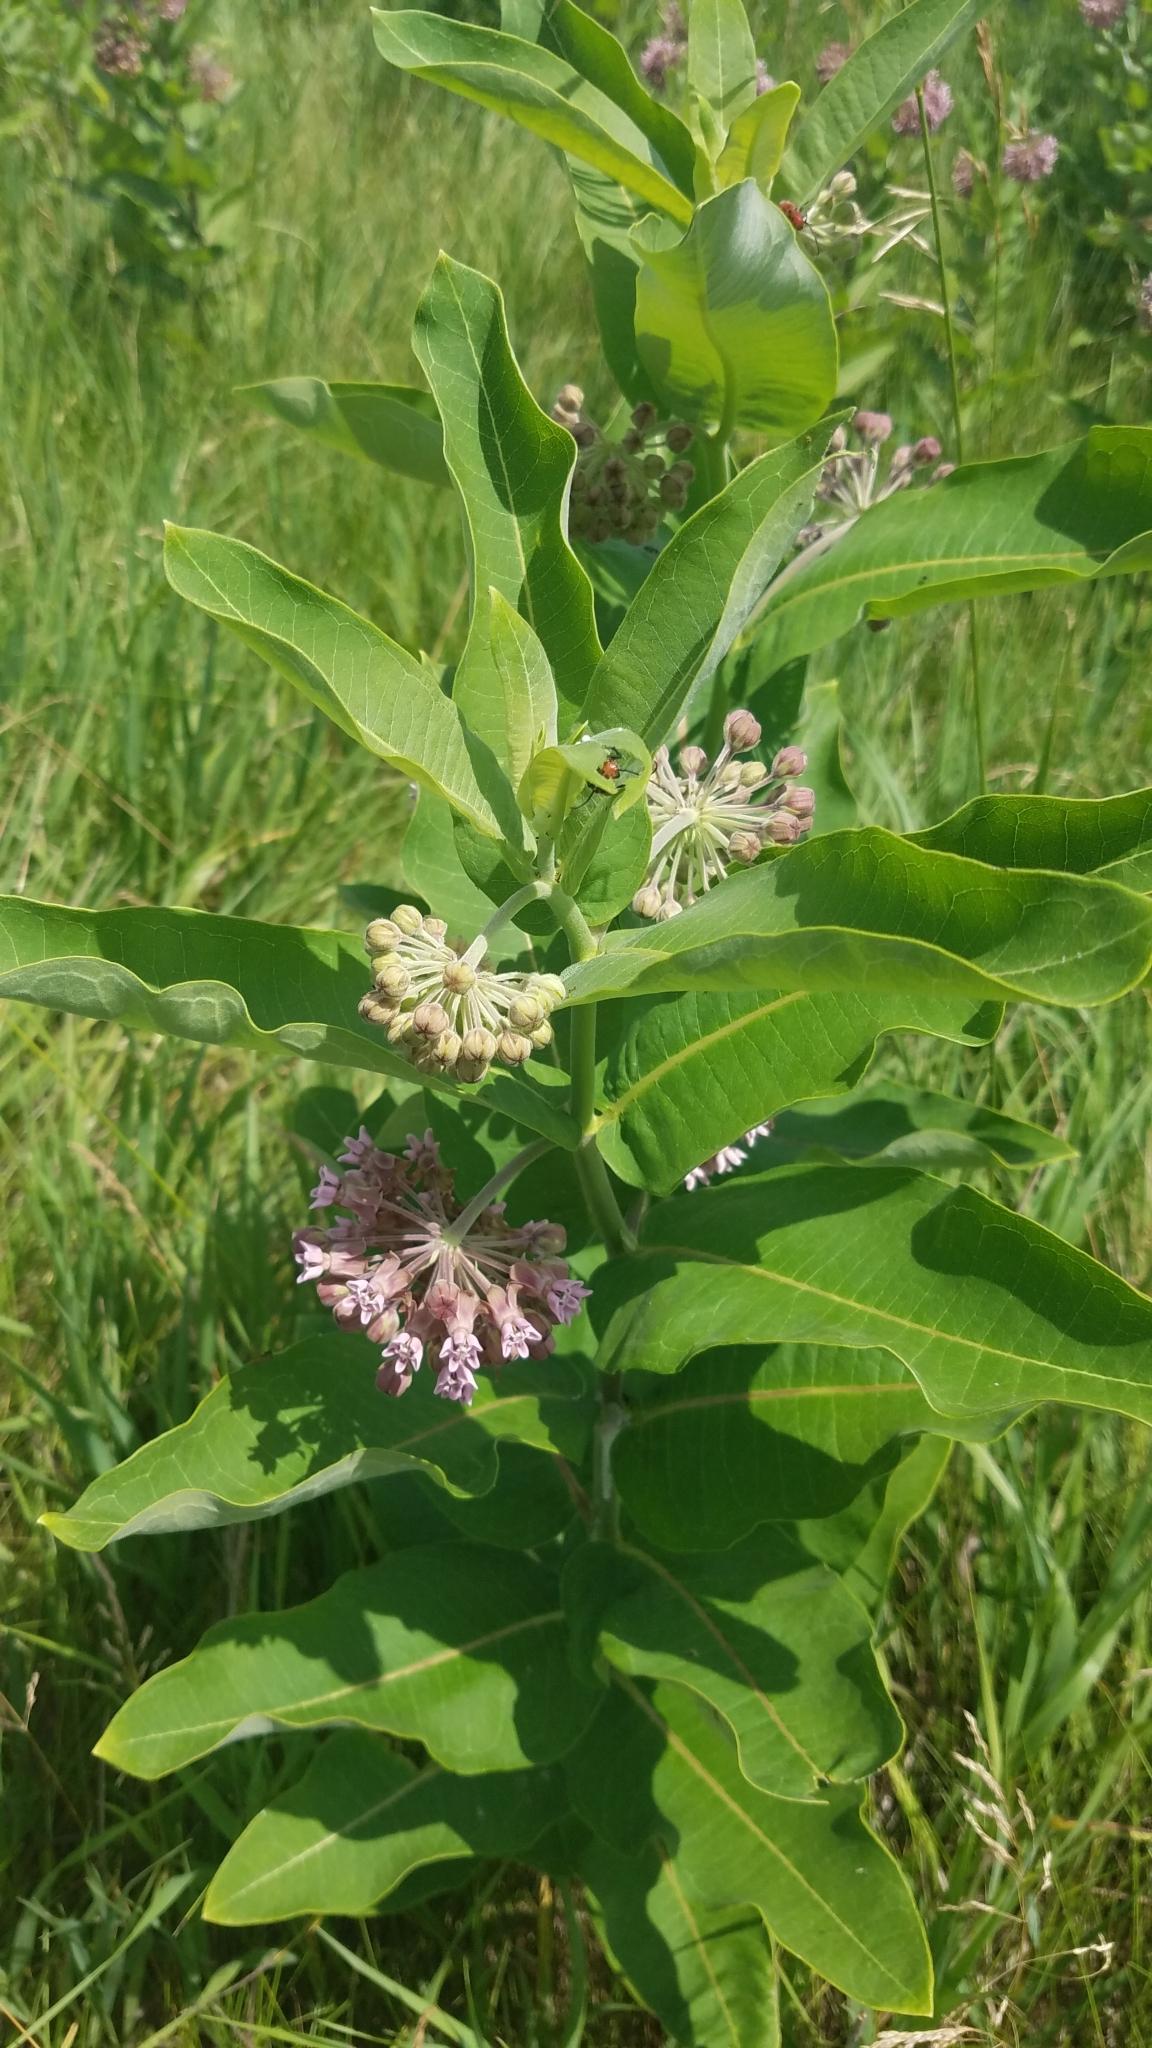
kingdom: Plantae
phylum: Tracheophyta
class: Magnoliopsida
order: Gentianales
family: Apocynaceae
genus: Asclepias
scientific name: Asclepias syriaca
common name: Common milkweed
